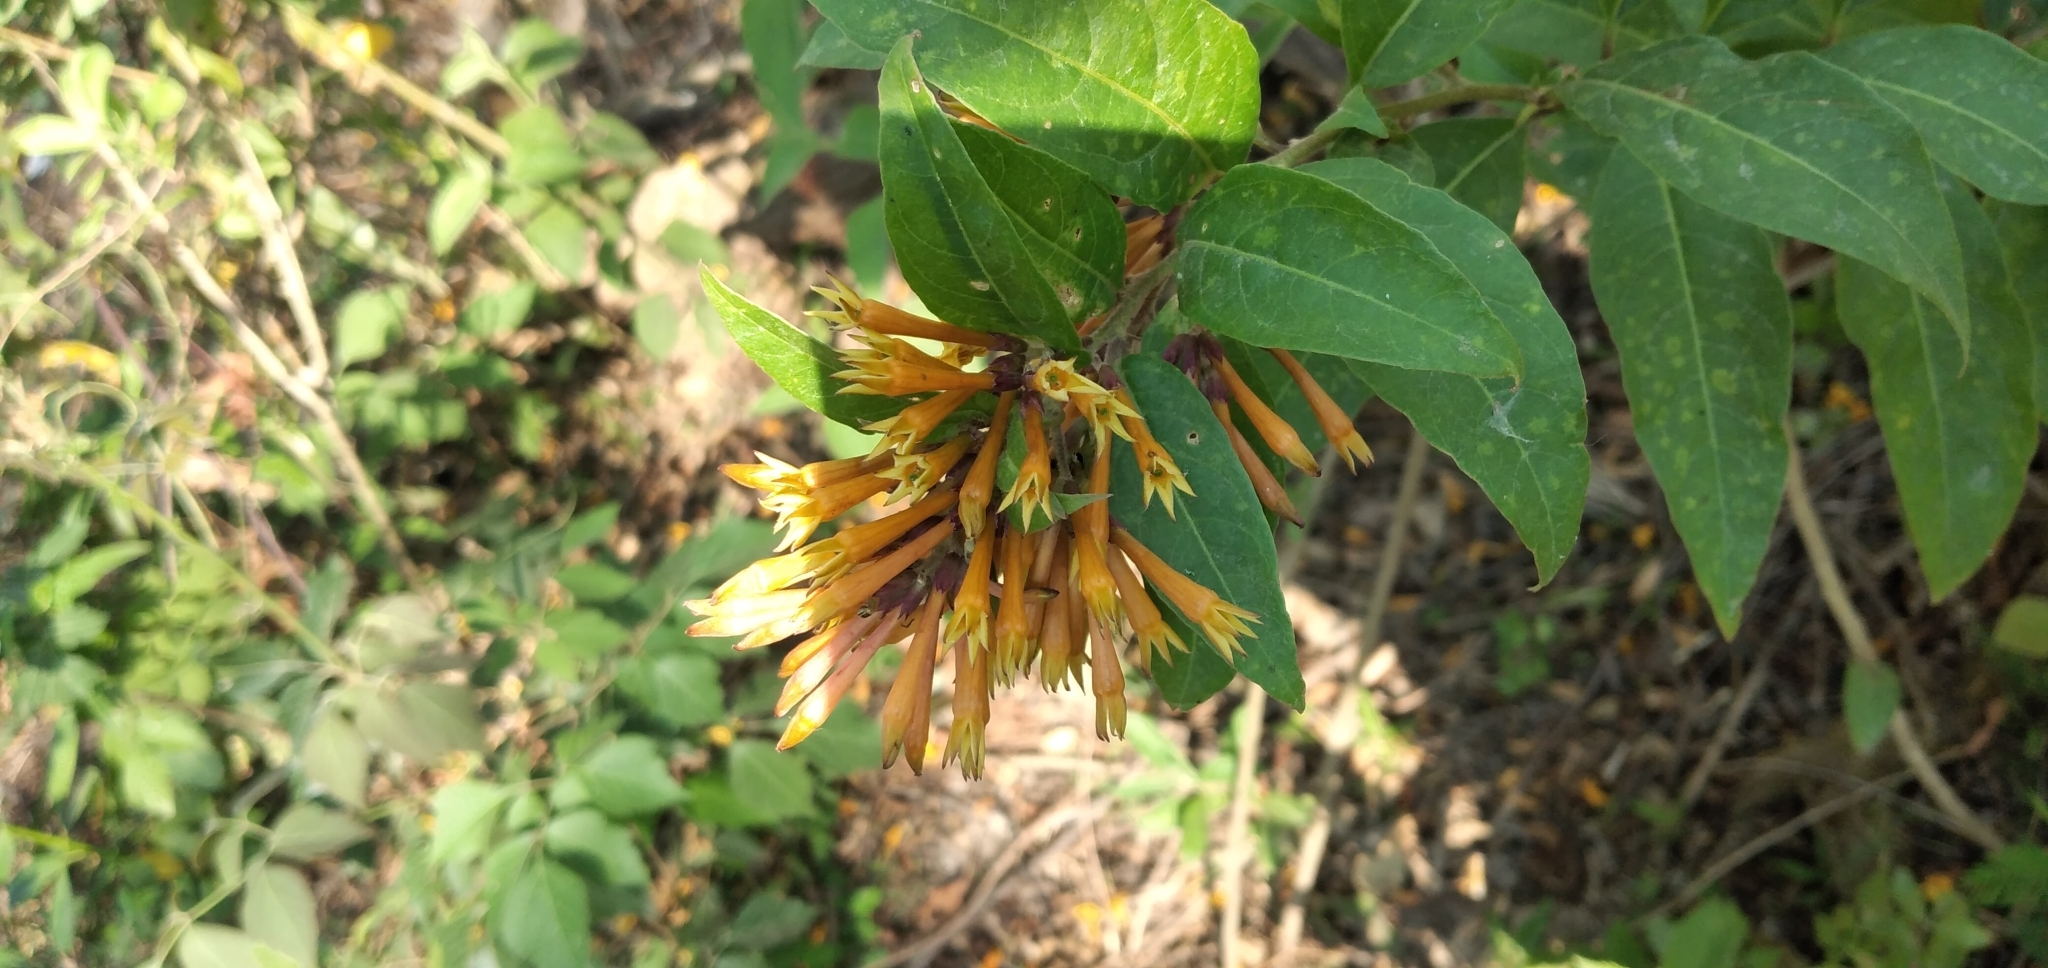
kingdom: Plantae
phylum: Tracheophyta
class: Magnoliopsida
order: Solanales
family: Solanaceae
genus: Cestrum
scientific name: Cestrum parqui
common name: Chilean cestrum
